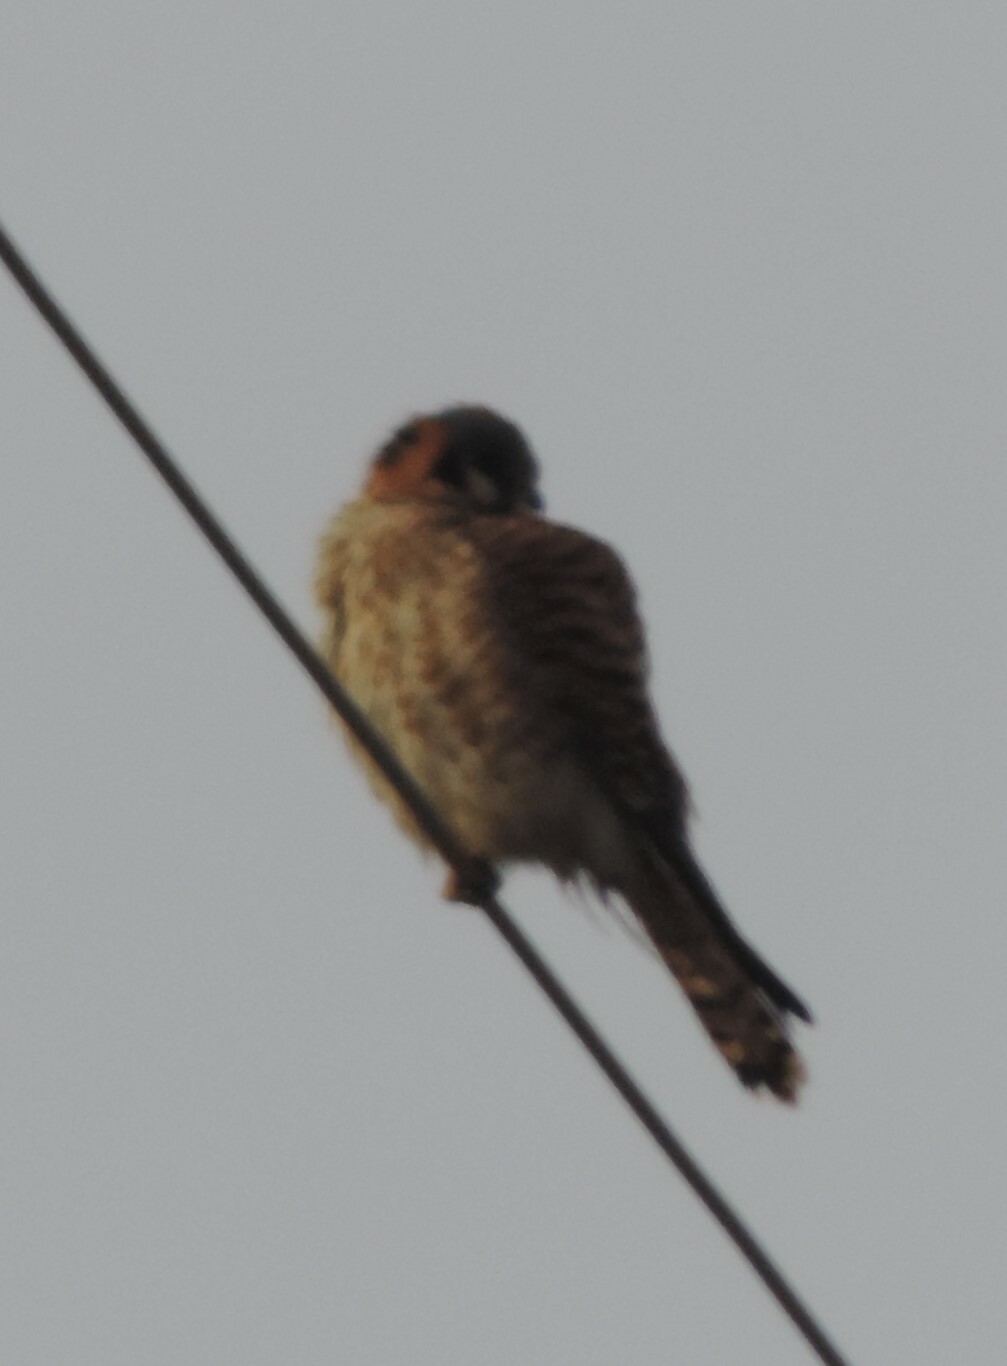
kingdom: Animalia
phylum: Chordata
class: Aves
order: Falconiformes
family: Falconidae
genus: Falco
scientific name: Falco sparverius
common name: American kestrel
